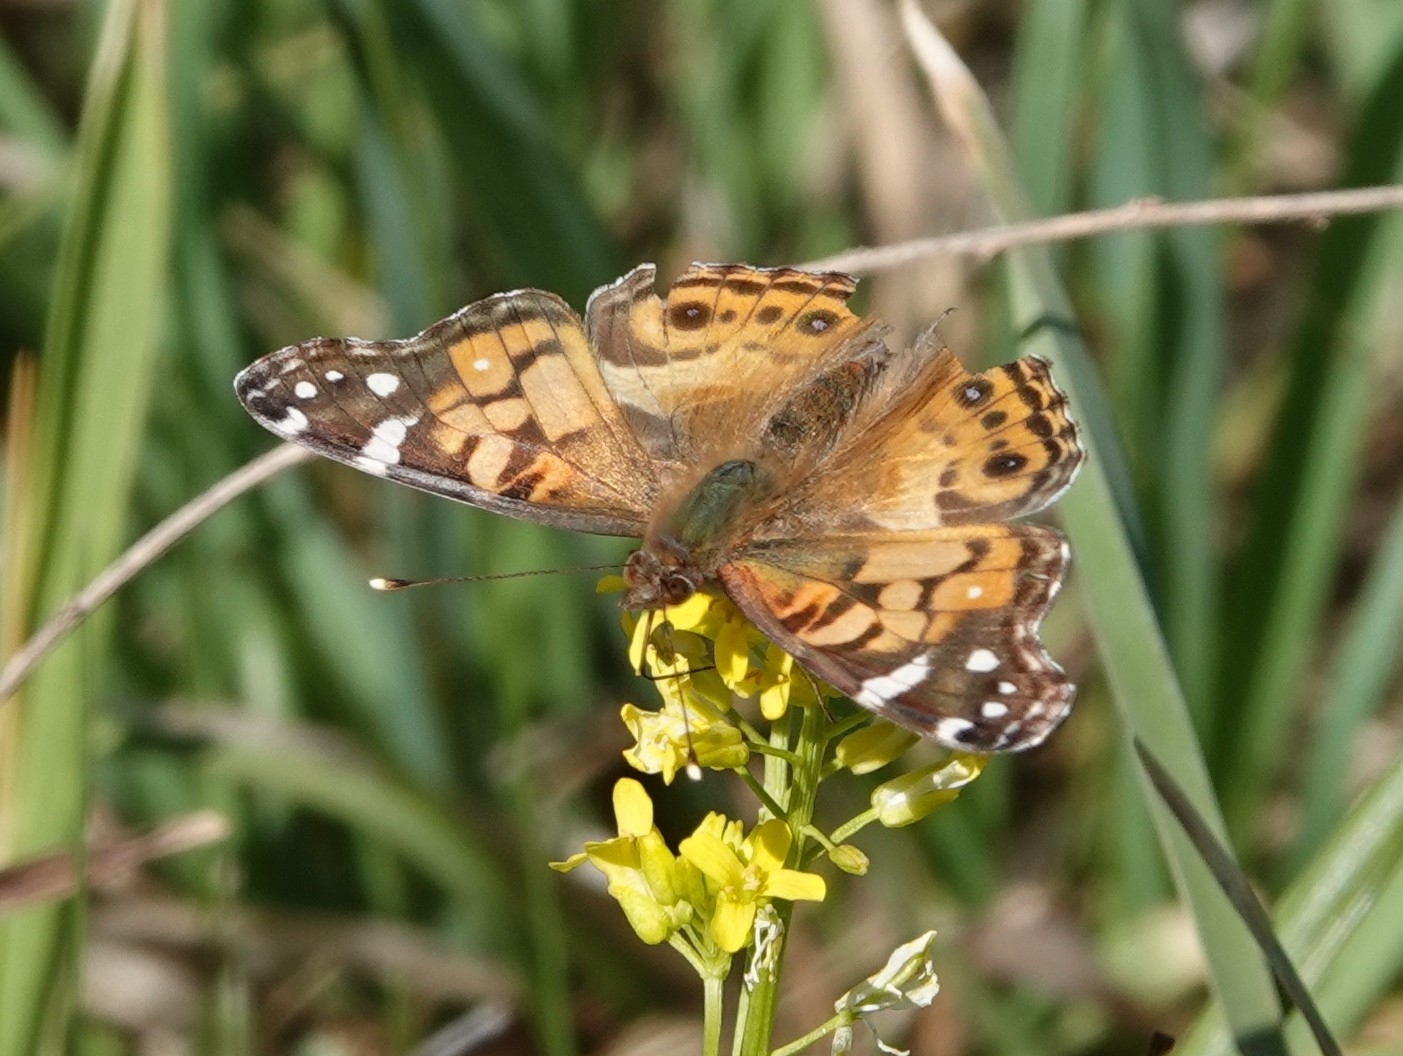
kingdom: Animalia
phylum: Arthropoda
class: Insecta
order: Lepidoptera
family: Nymphalidae
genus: Vanessa
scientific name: Vanessa virginiensis
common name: American lady
